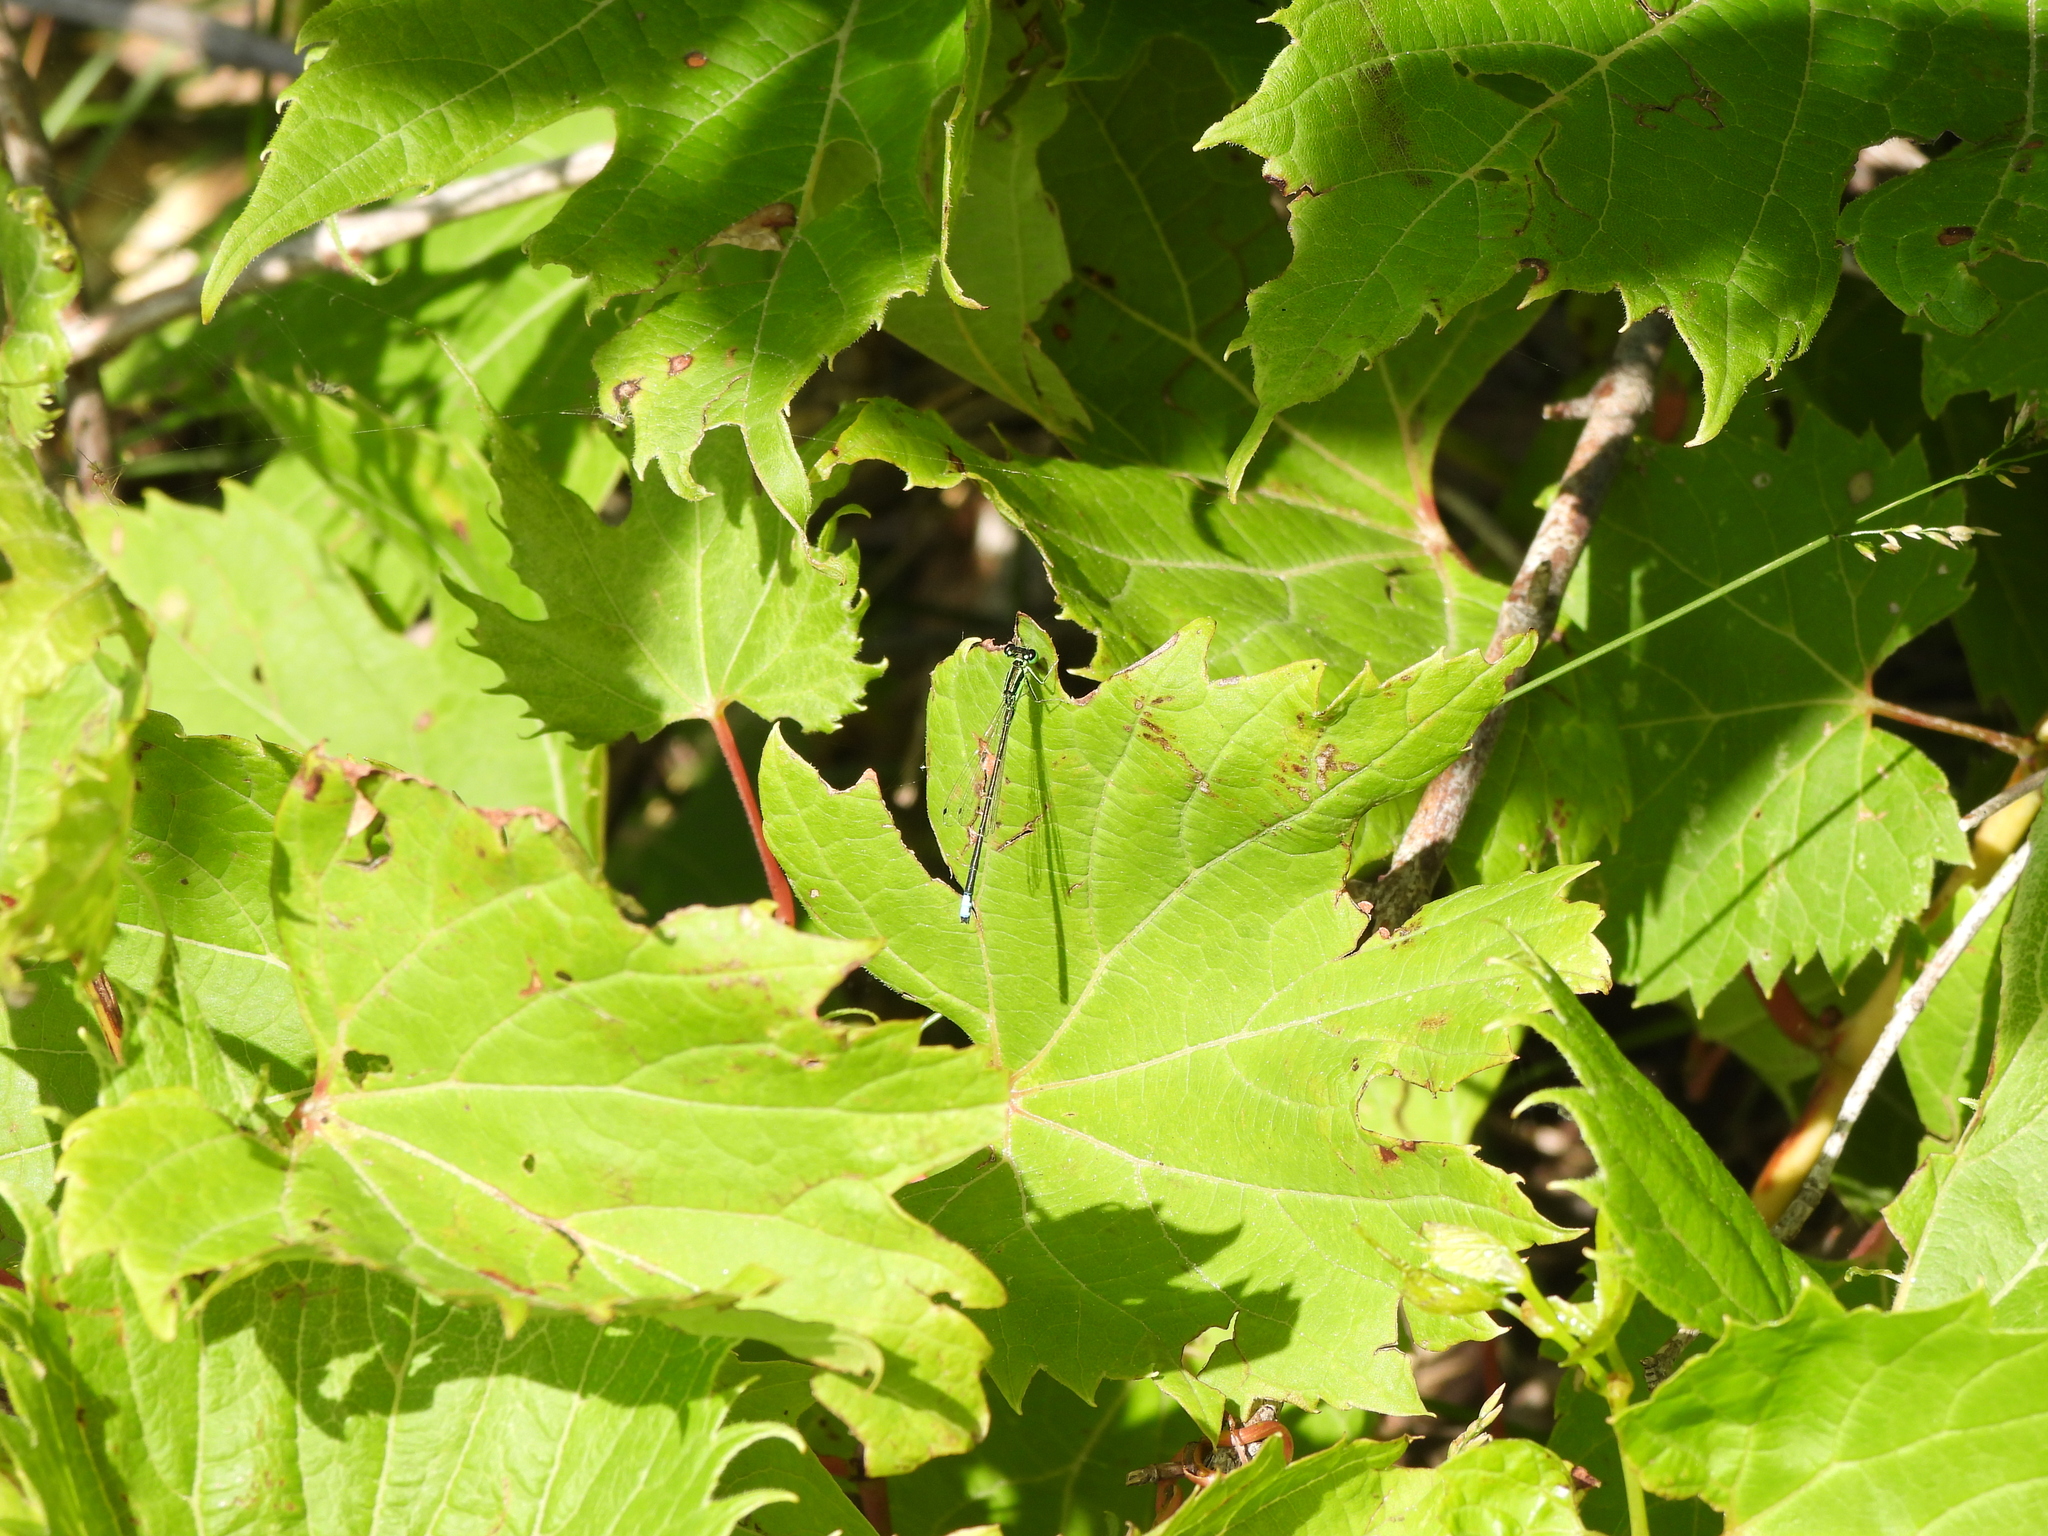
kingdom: Animalia
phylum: Arthropoda
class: Insecta
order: Odonata
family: Coenagrionidae
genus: Ischnura
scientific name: Ischnura verticalis
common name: Eastern forktail
